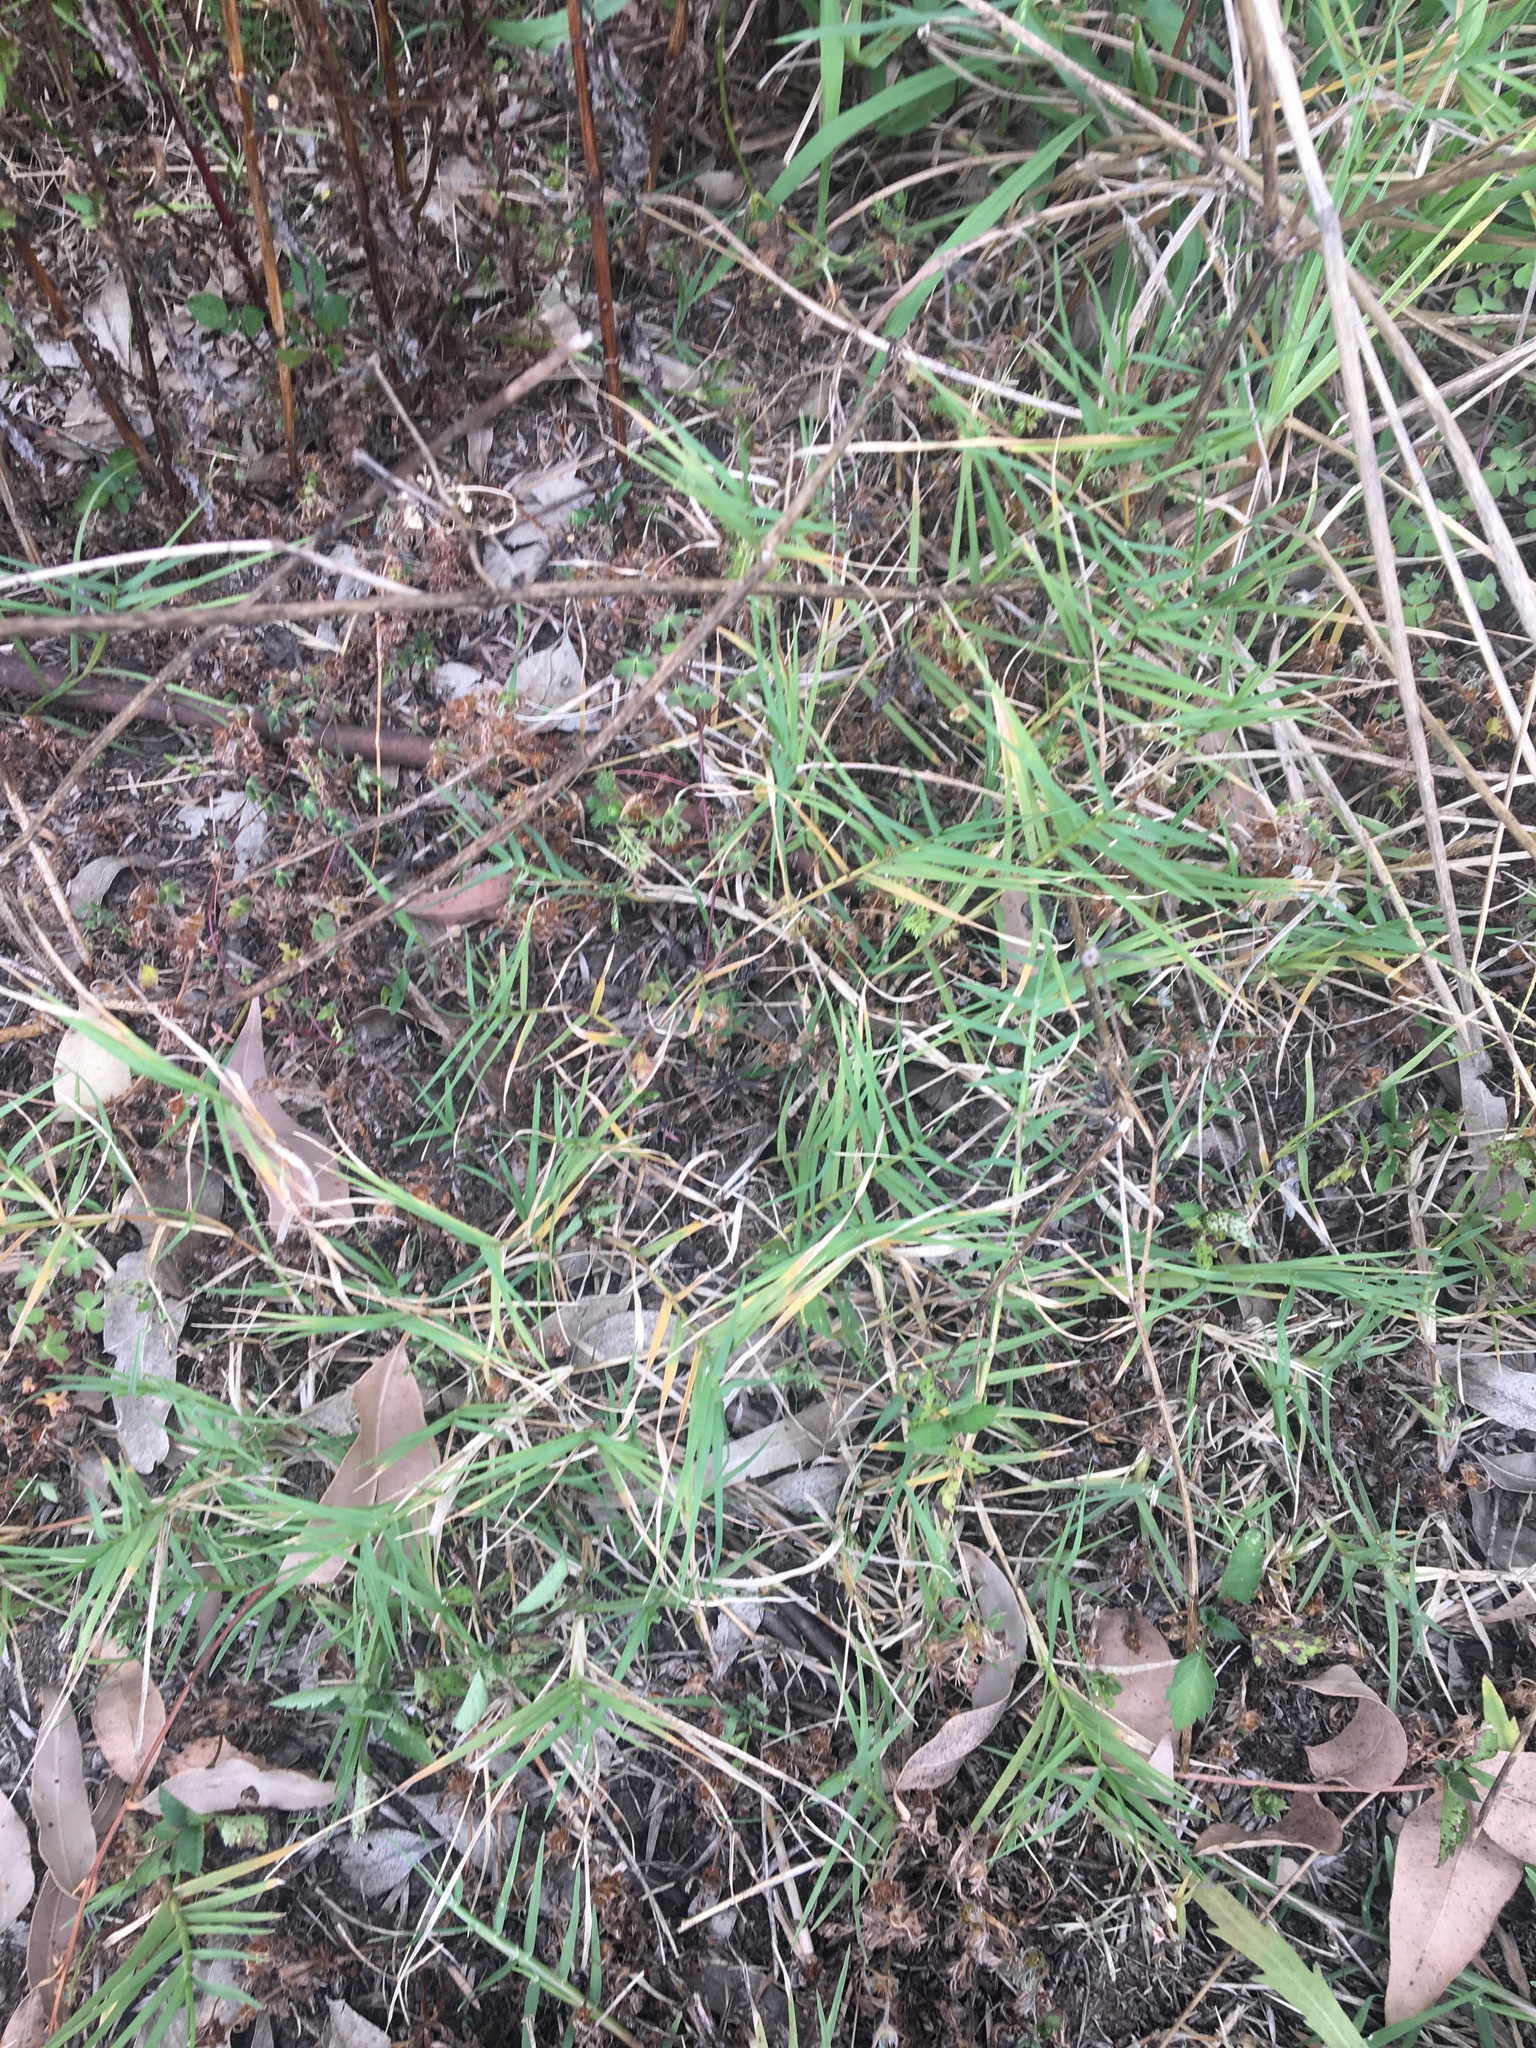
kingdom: Plantae
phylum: Tracheophyta
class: Liliopsida
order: Poales
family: Poaceae
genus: Cynodon
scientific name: Cynodon dactylon
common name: Bermuda grass
